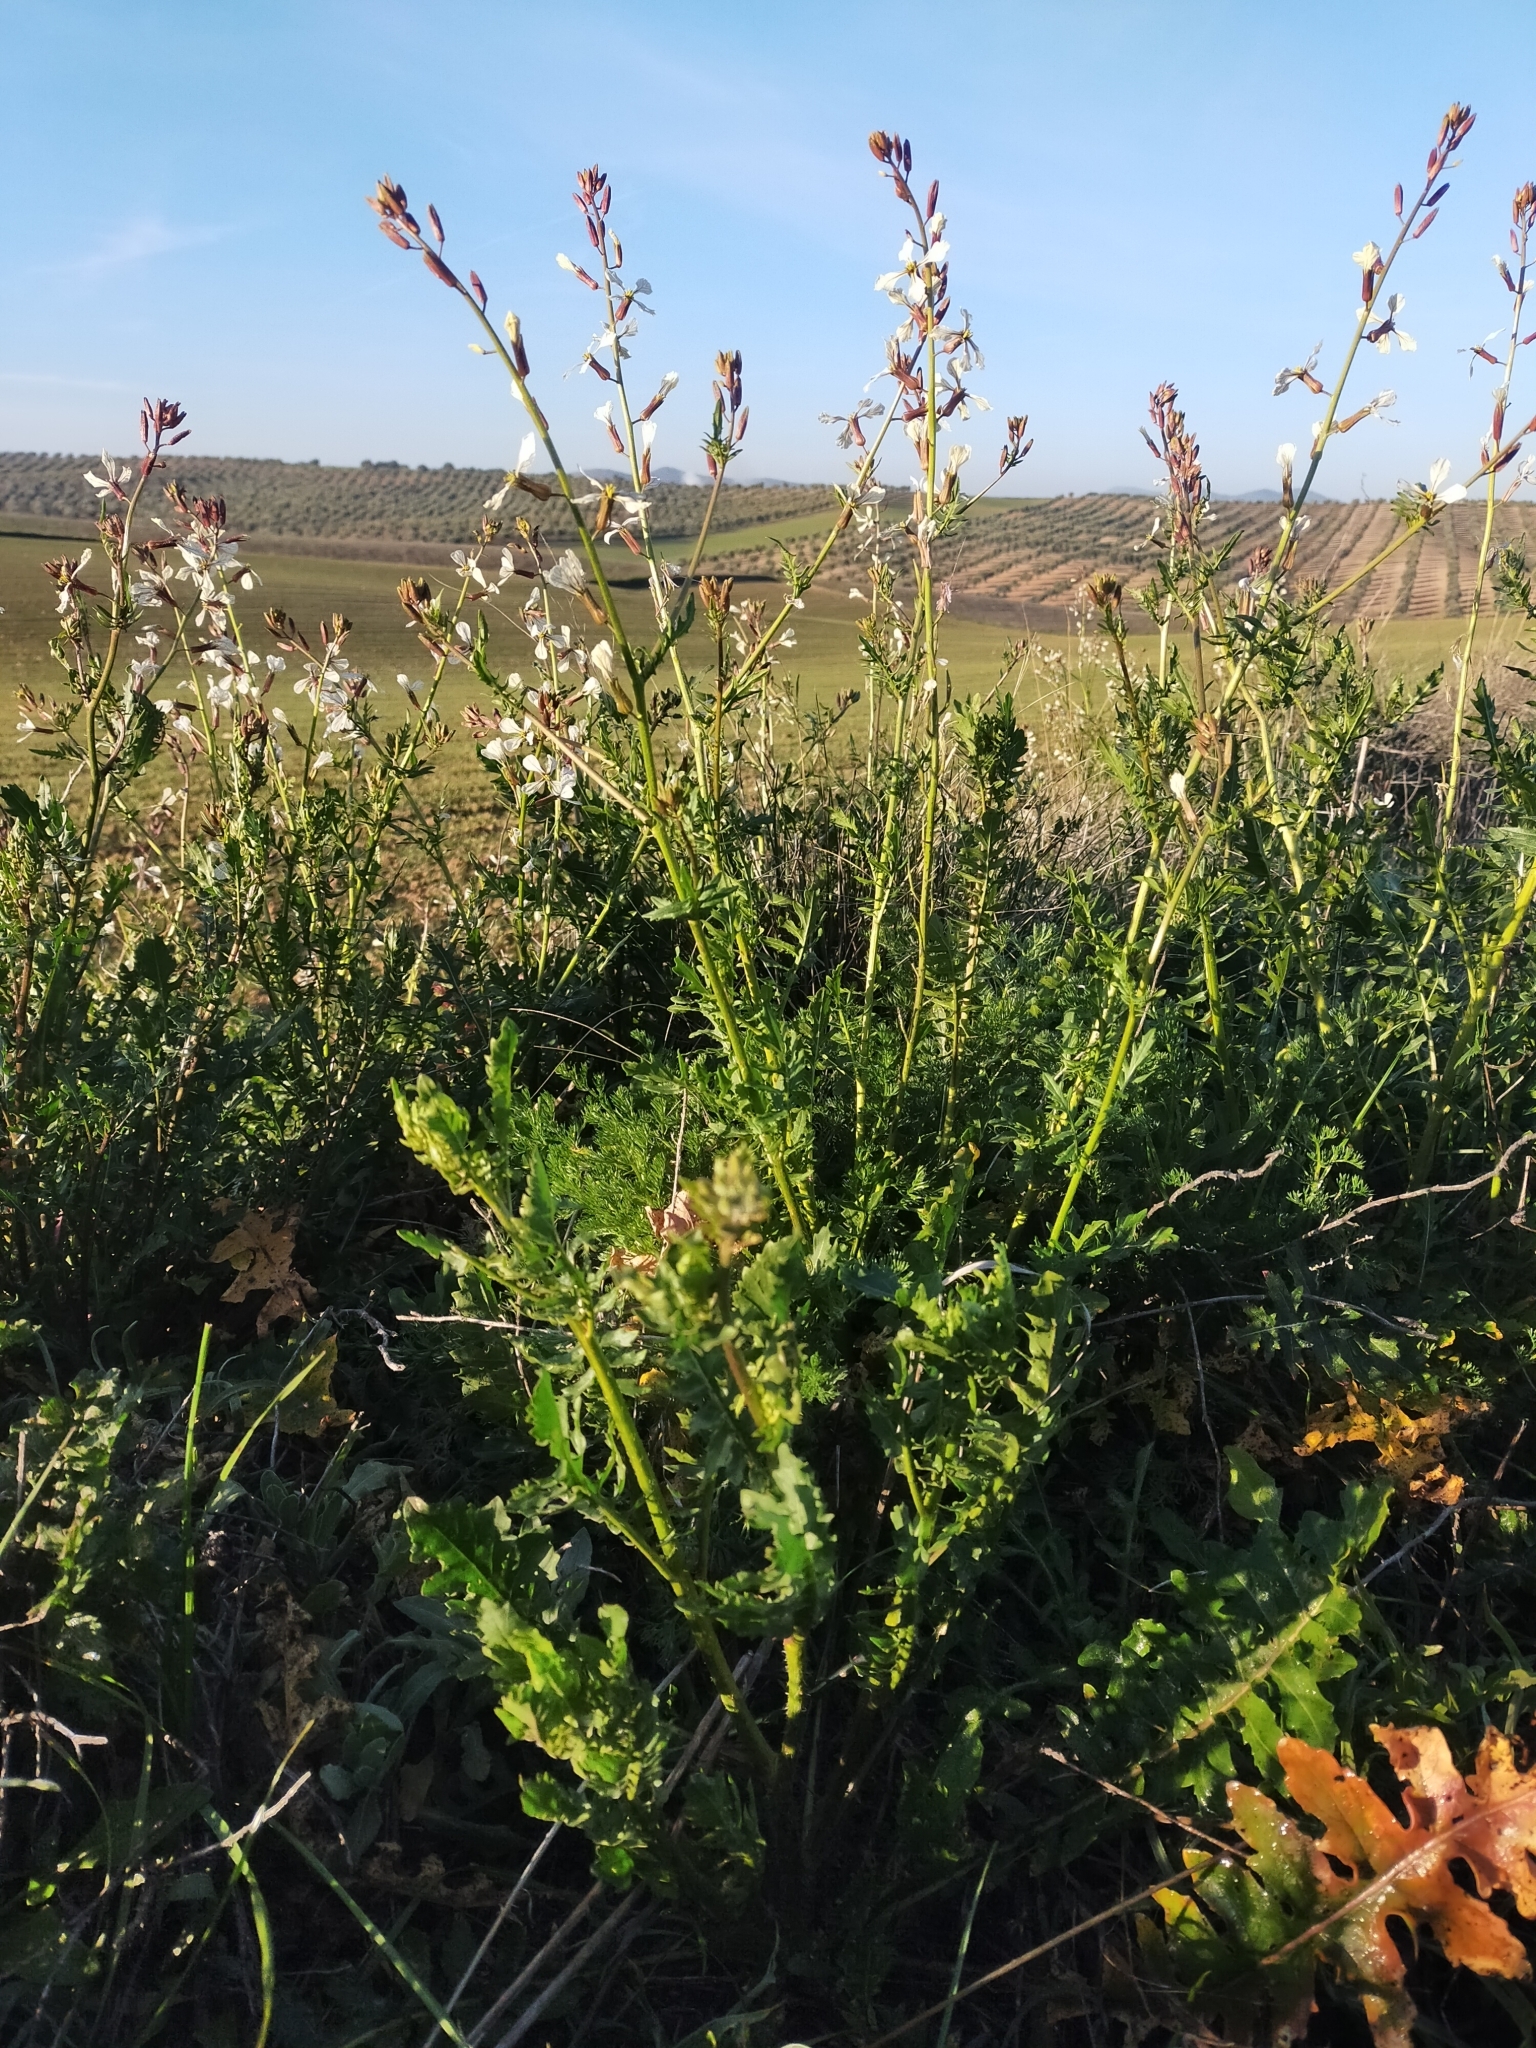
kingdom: Plantae
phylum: Tracheophyta
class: Magnoliopsida
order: Brassicales
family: Brassicaceae
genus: Eruca
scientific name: Eruca vesicaria
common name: Garden rocket
